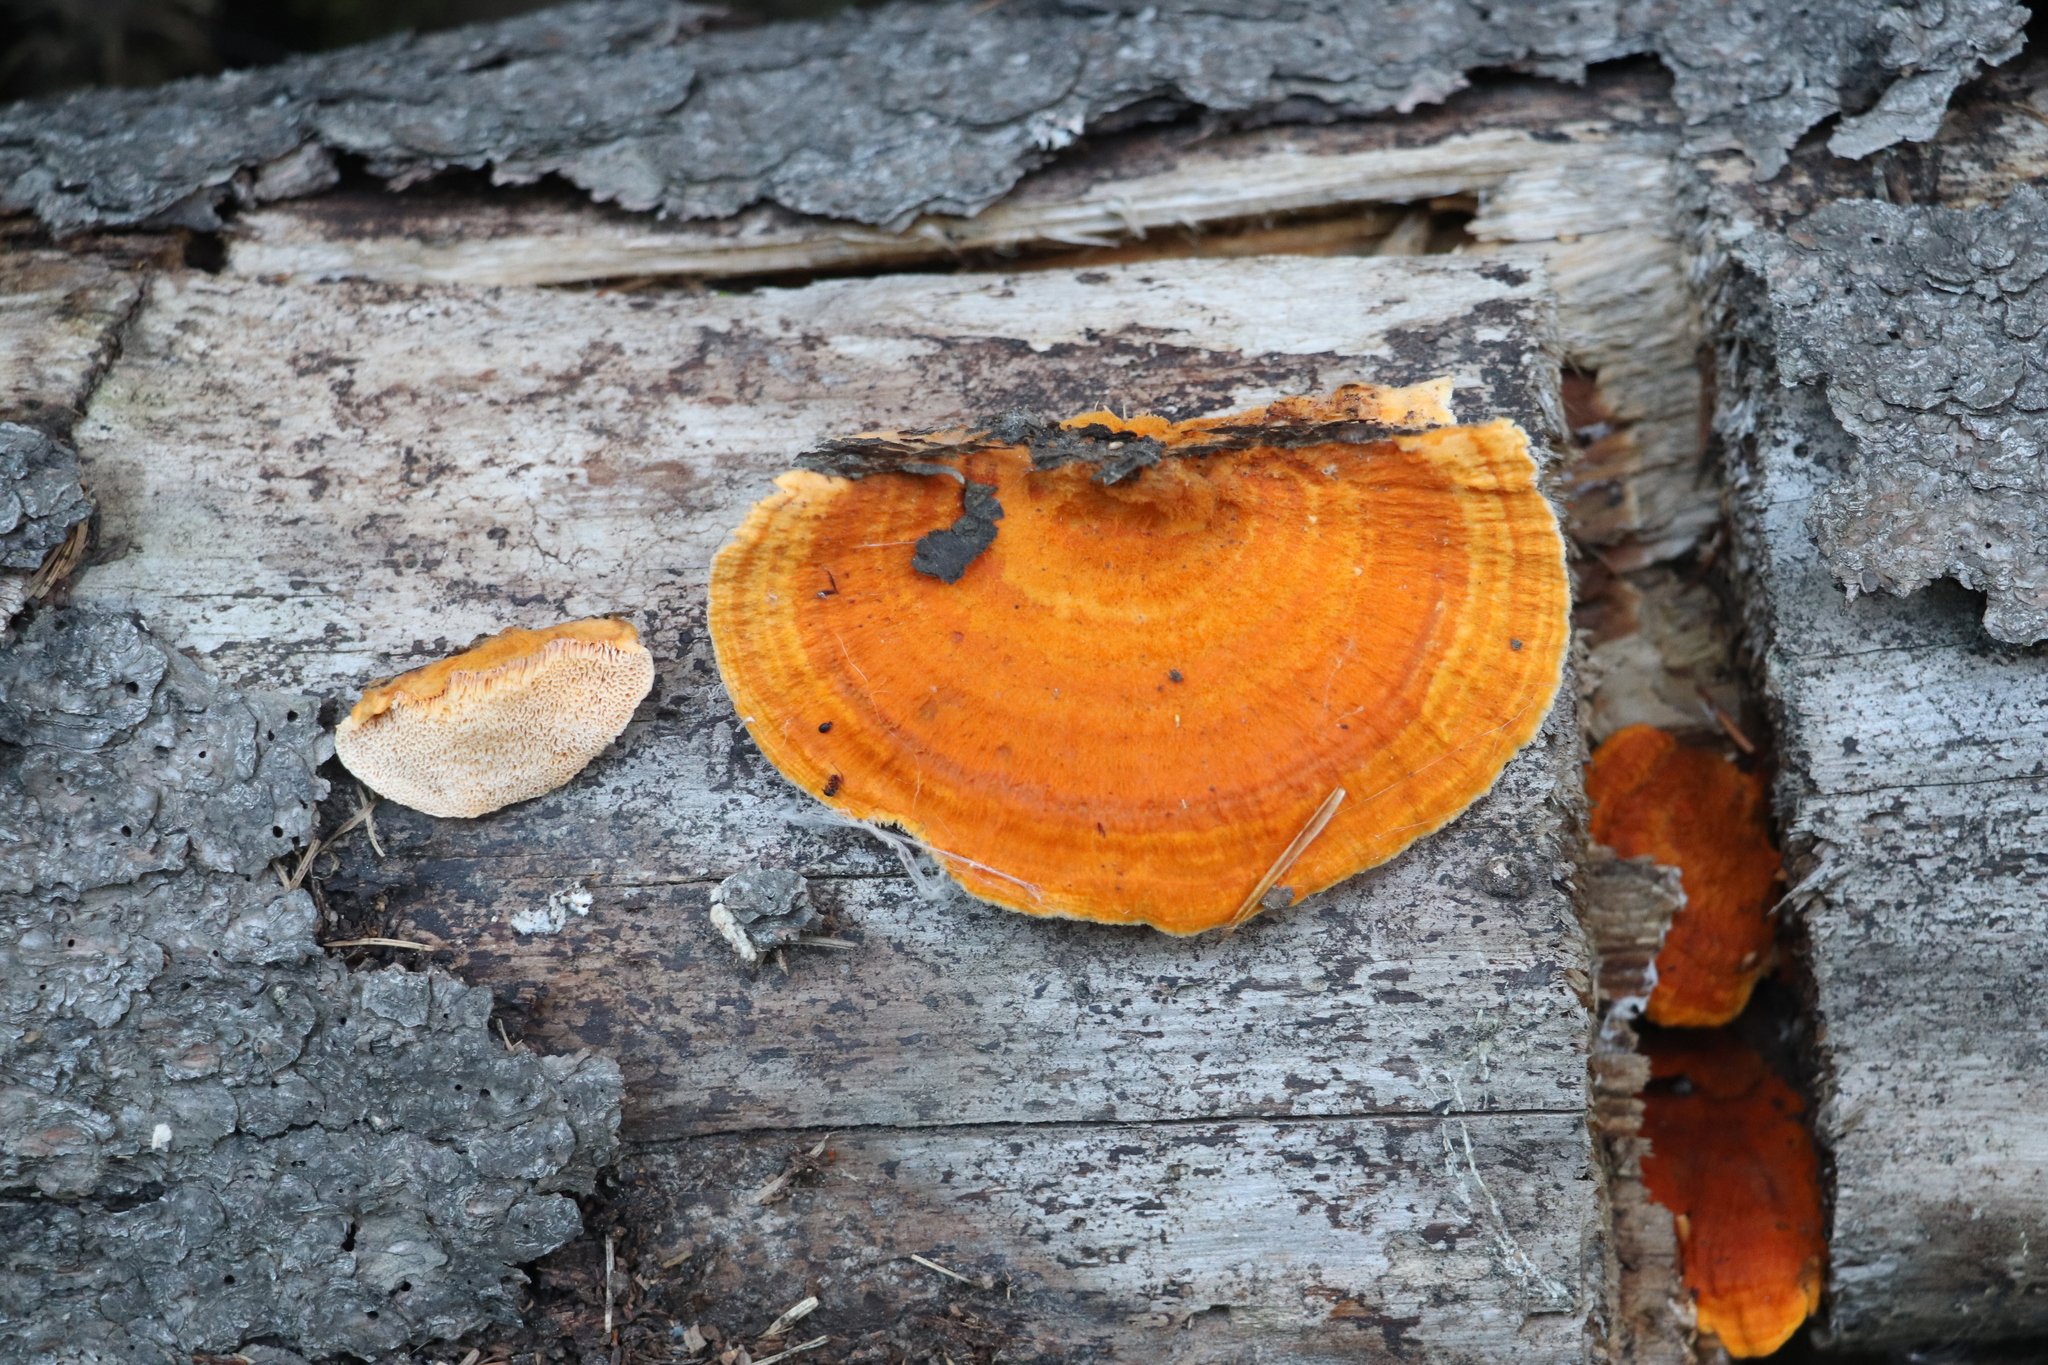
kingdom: Fungi
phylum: Basidiomycota
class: Agaricomycetes
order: Polyporales
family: Pycnoporellaceae
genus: Pycnoporellus
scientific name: Pycnoporellus fulgens
